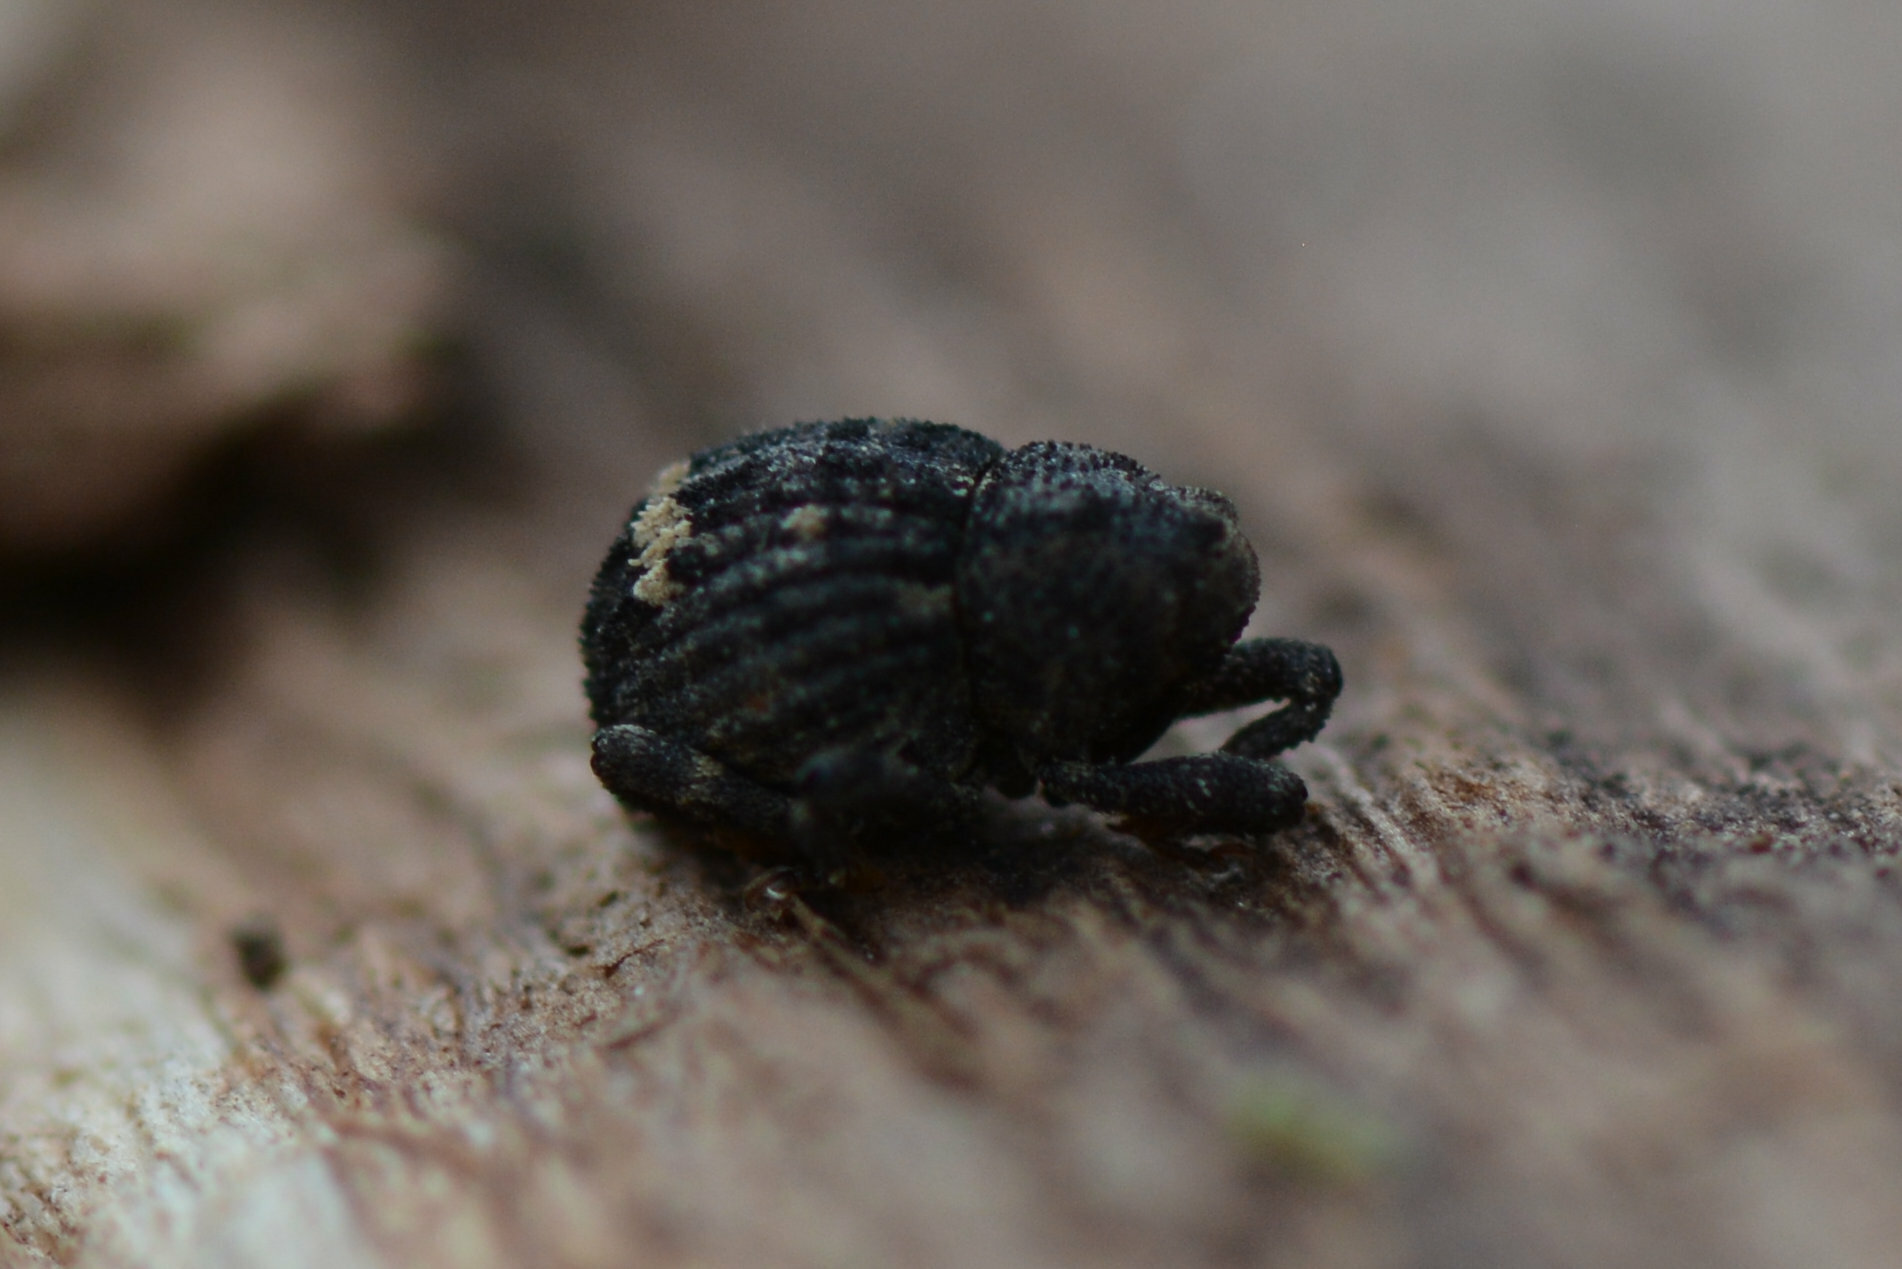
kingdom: Animalia
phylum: Arthropoda
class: Insecta
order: Coleoptera
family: Curculionidae
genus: Echinodera
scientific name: Echinodera hypocrita
